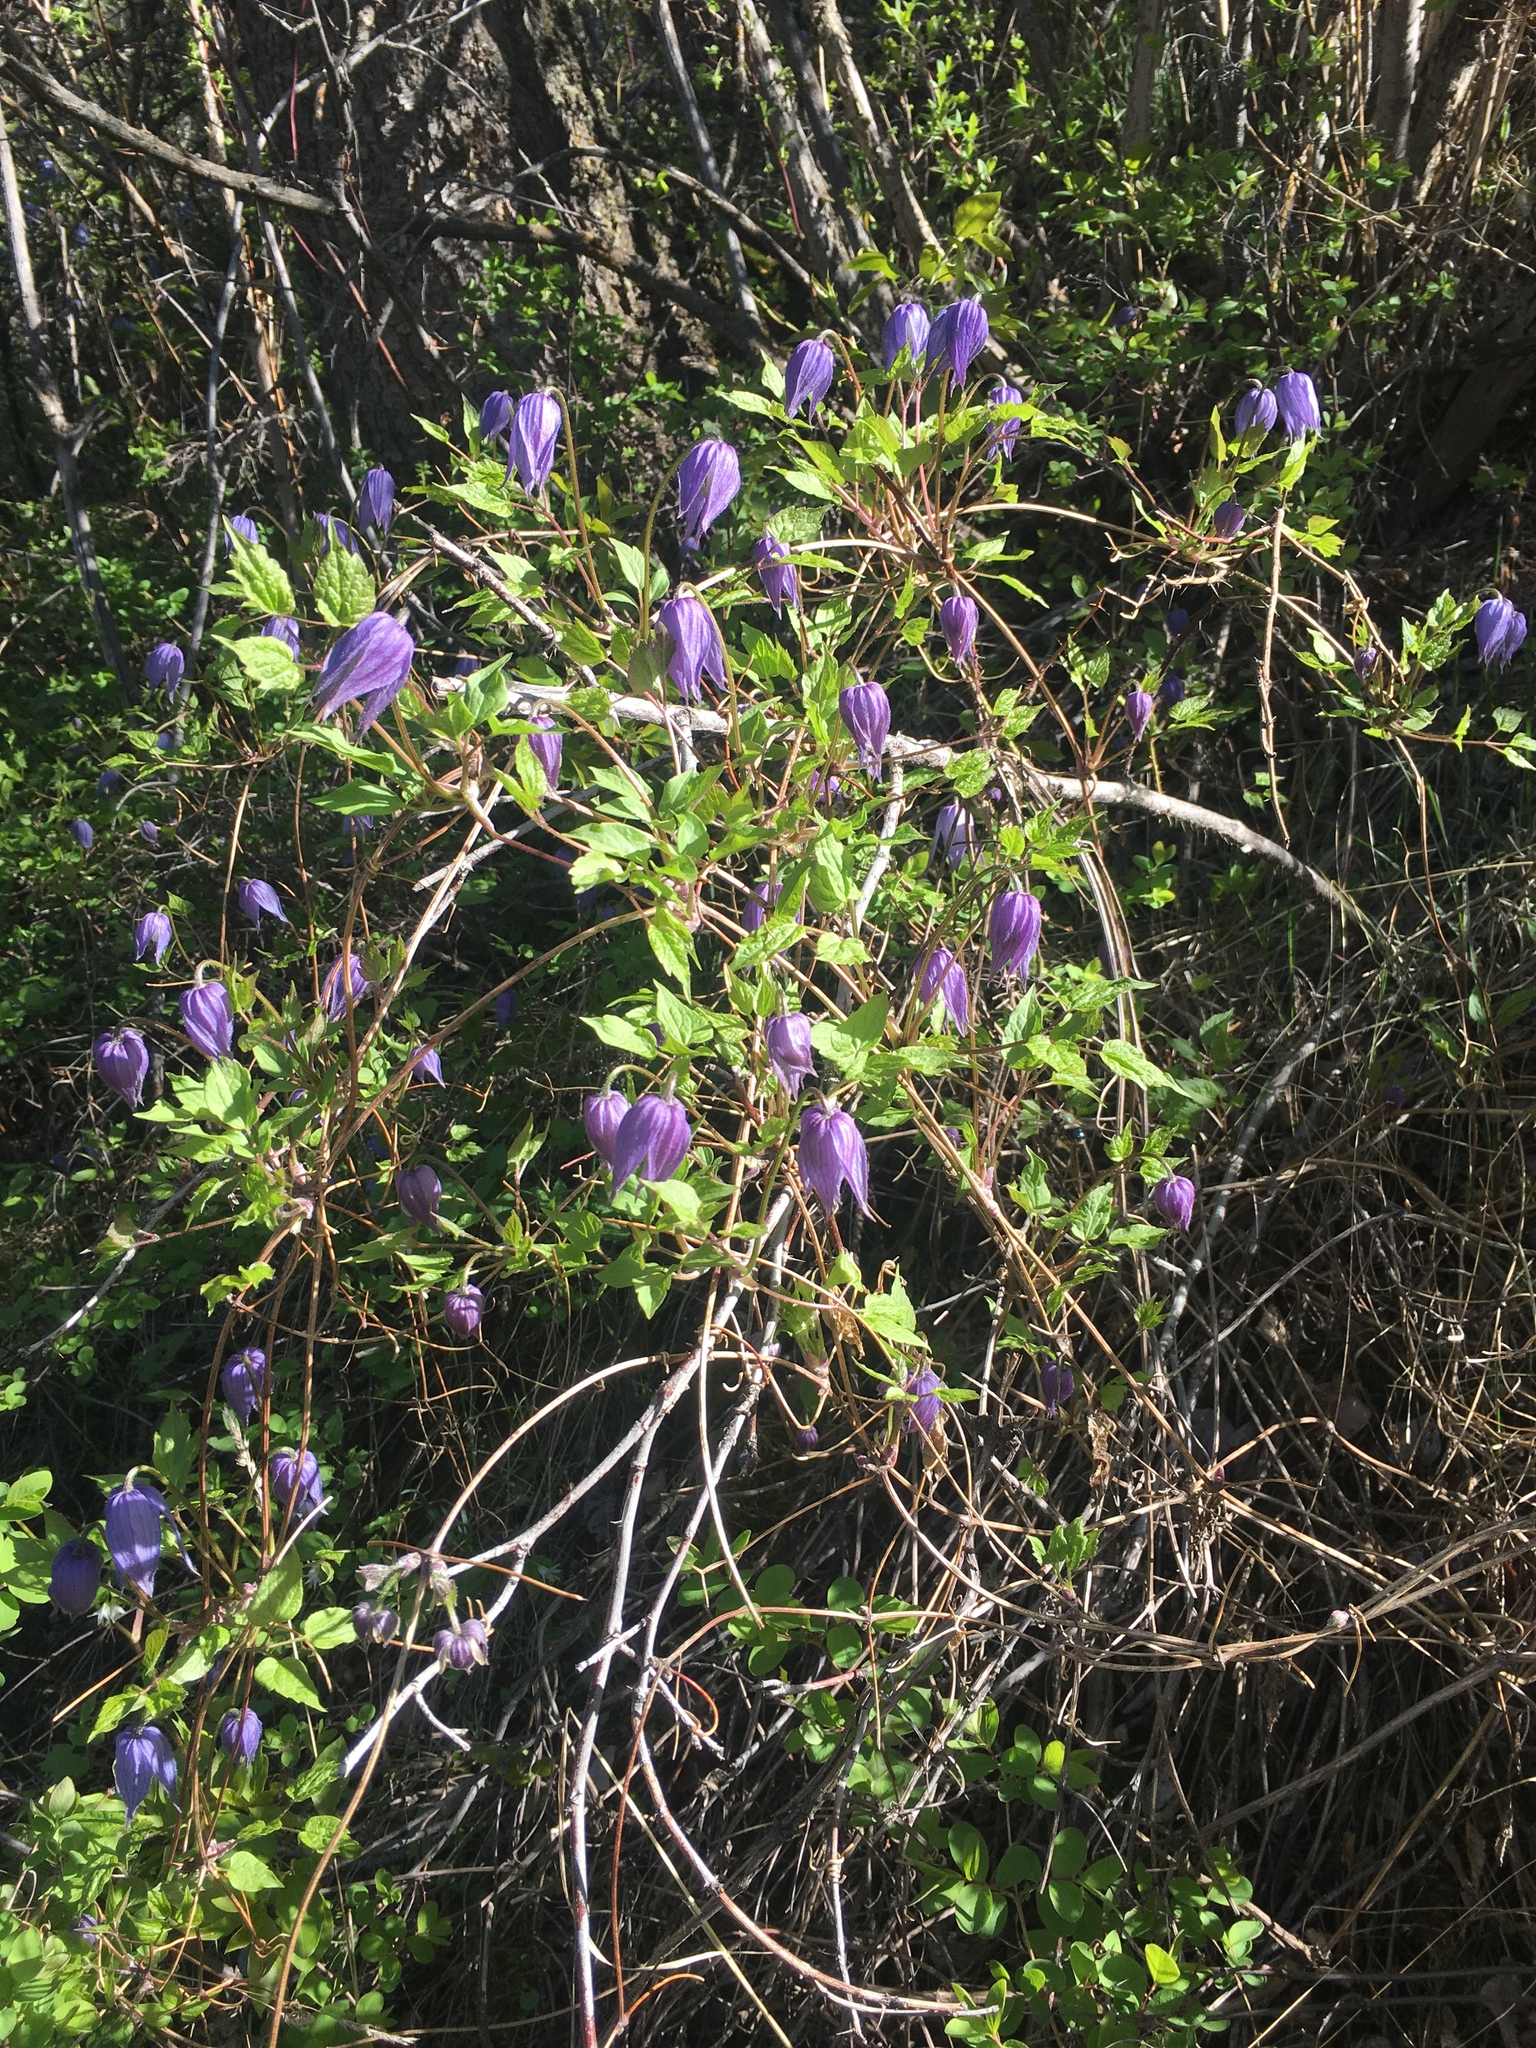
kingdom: Plantae
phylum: Tracheophyta
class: Magnoliopsida
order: Ranunculales
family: Ranunculaceae
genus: Clematis
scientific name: Clematis occidentalis
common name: Purple clematis
